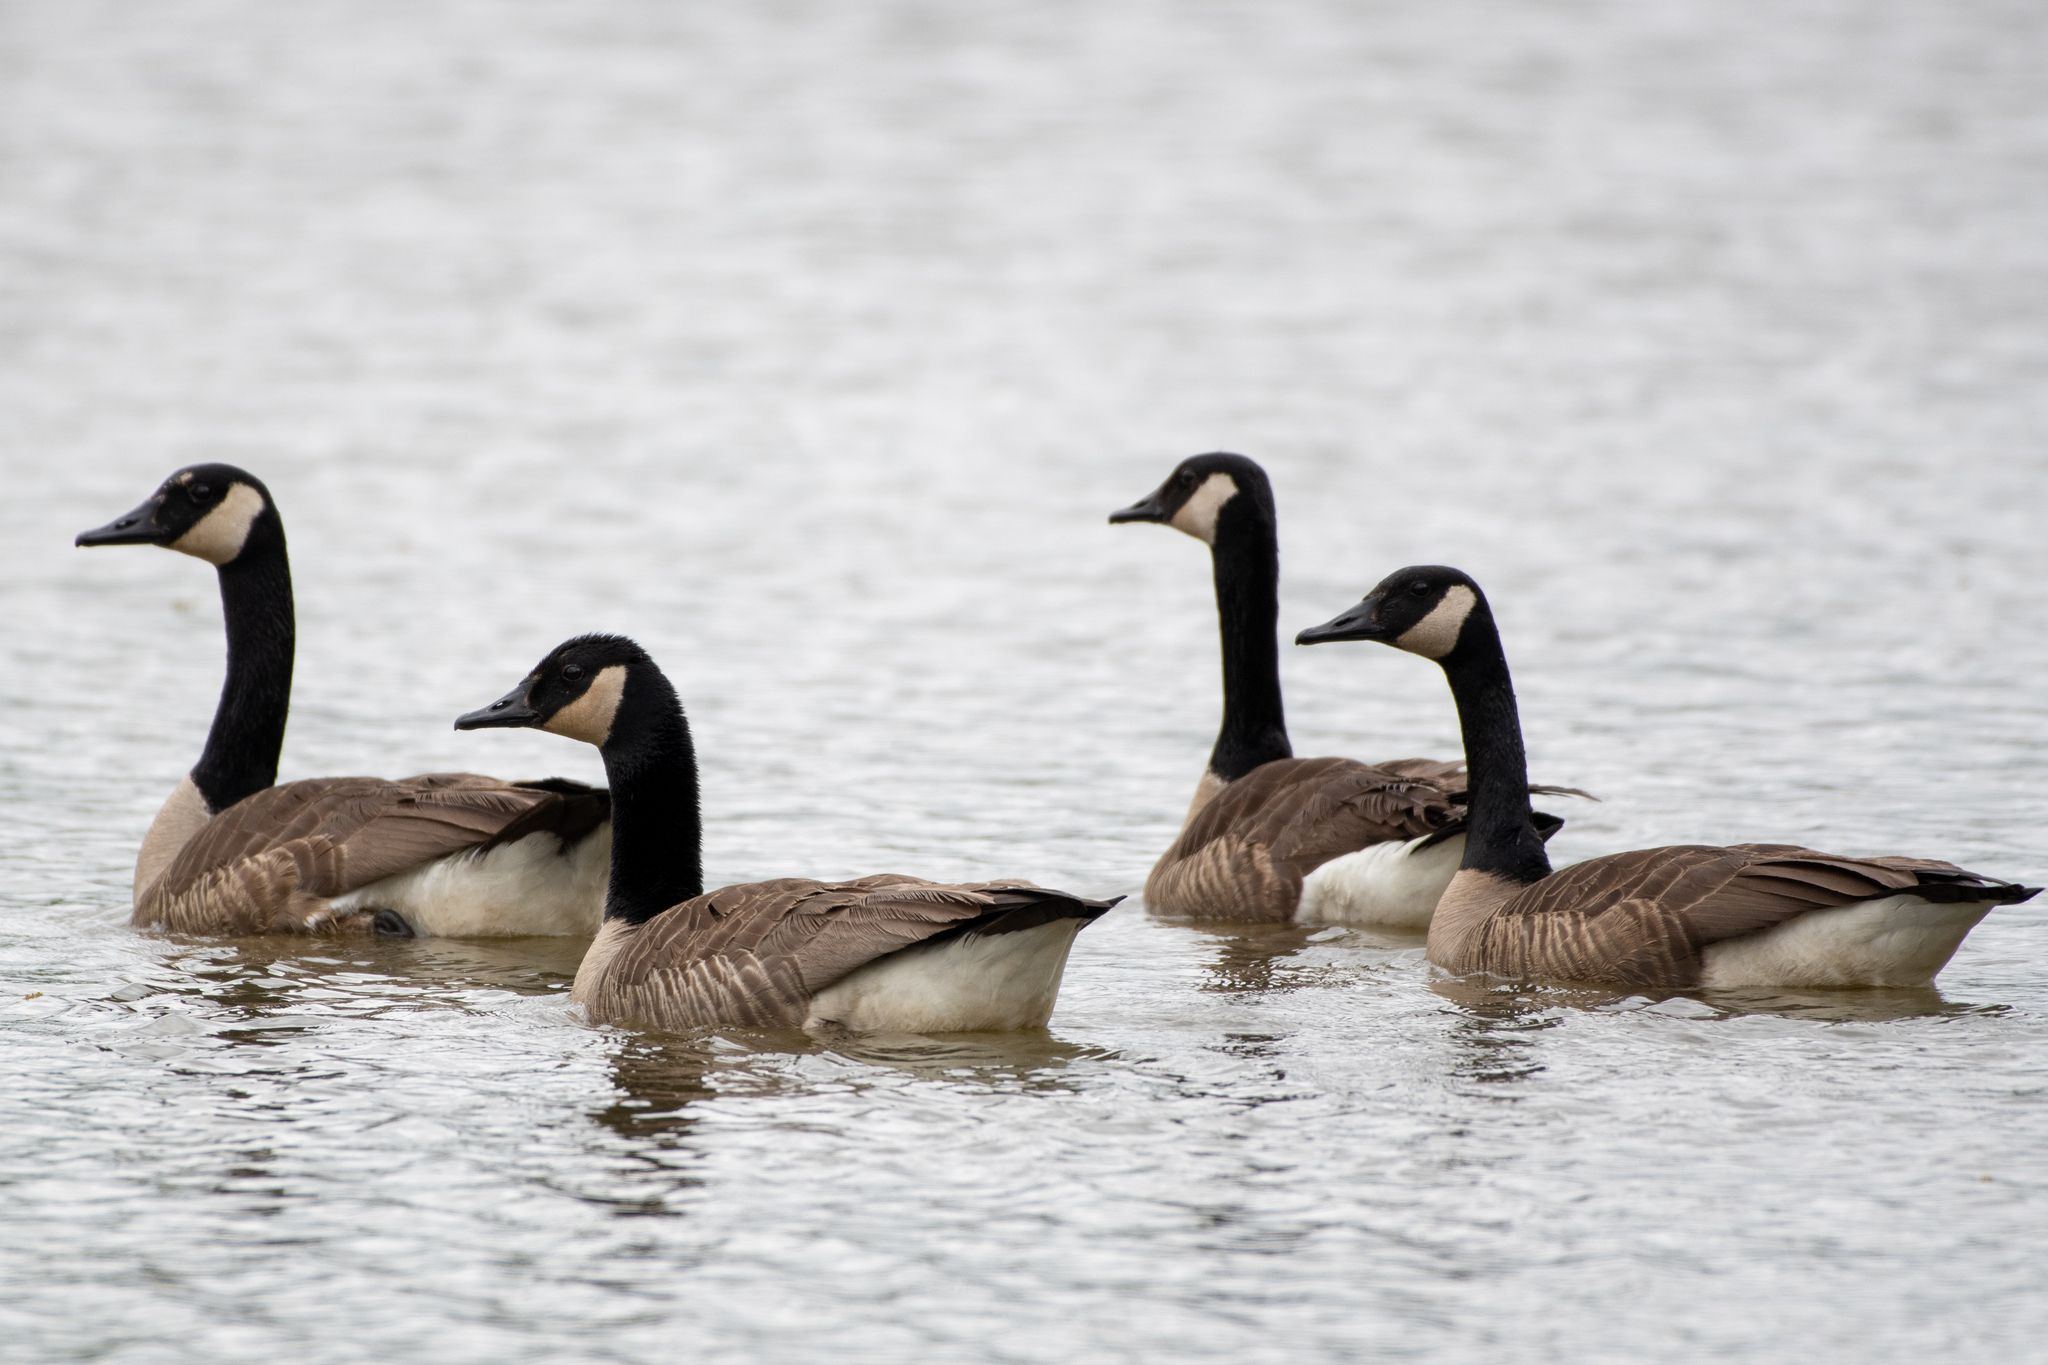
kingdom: Animalia
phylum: Chordata
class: Aves
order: Anseriformes
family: Anatidae
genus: Branta
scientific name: Branta canadensis
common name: Canada goose
